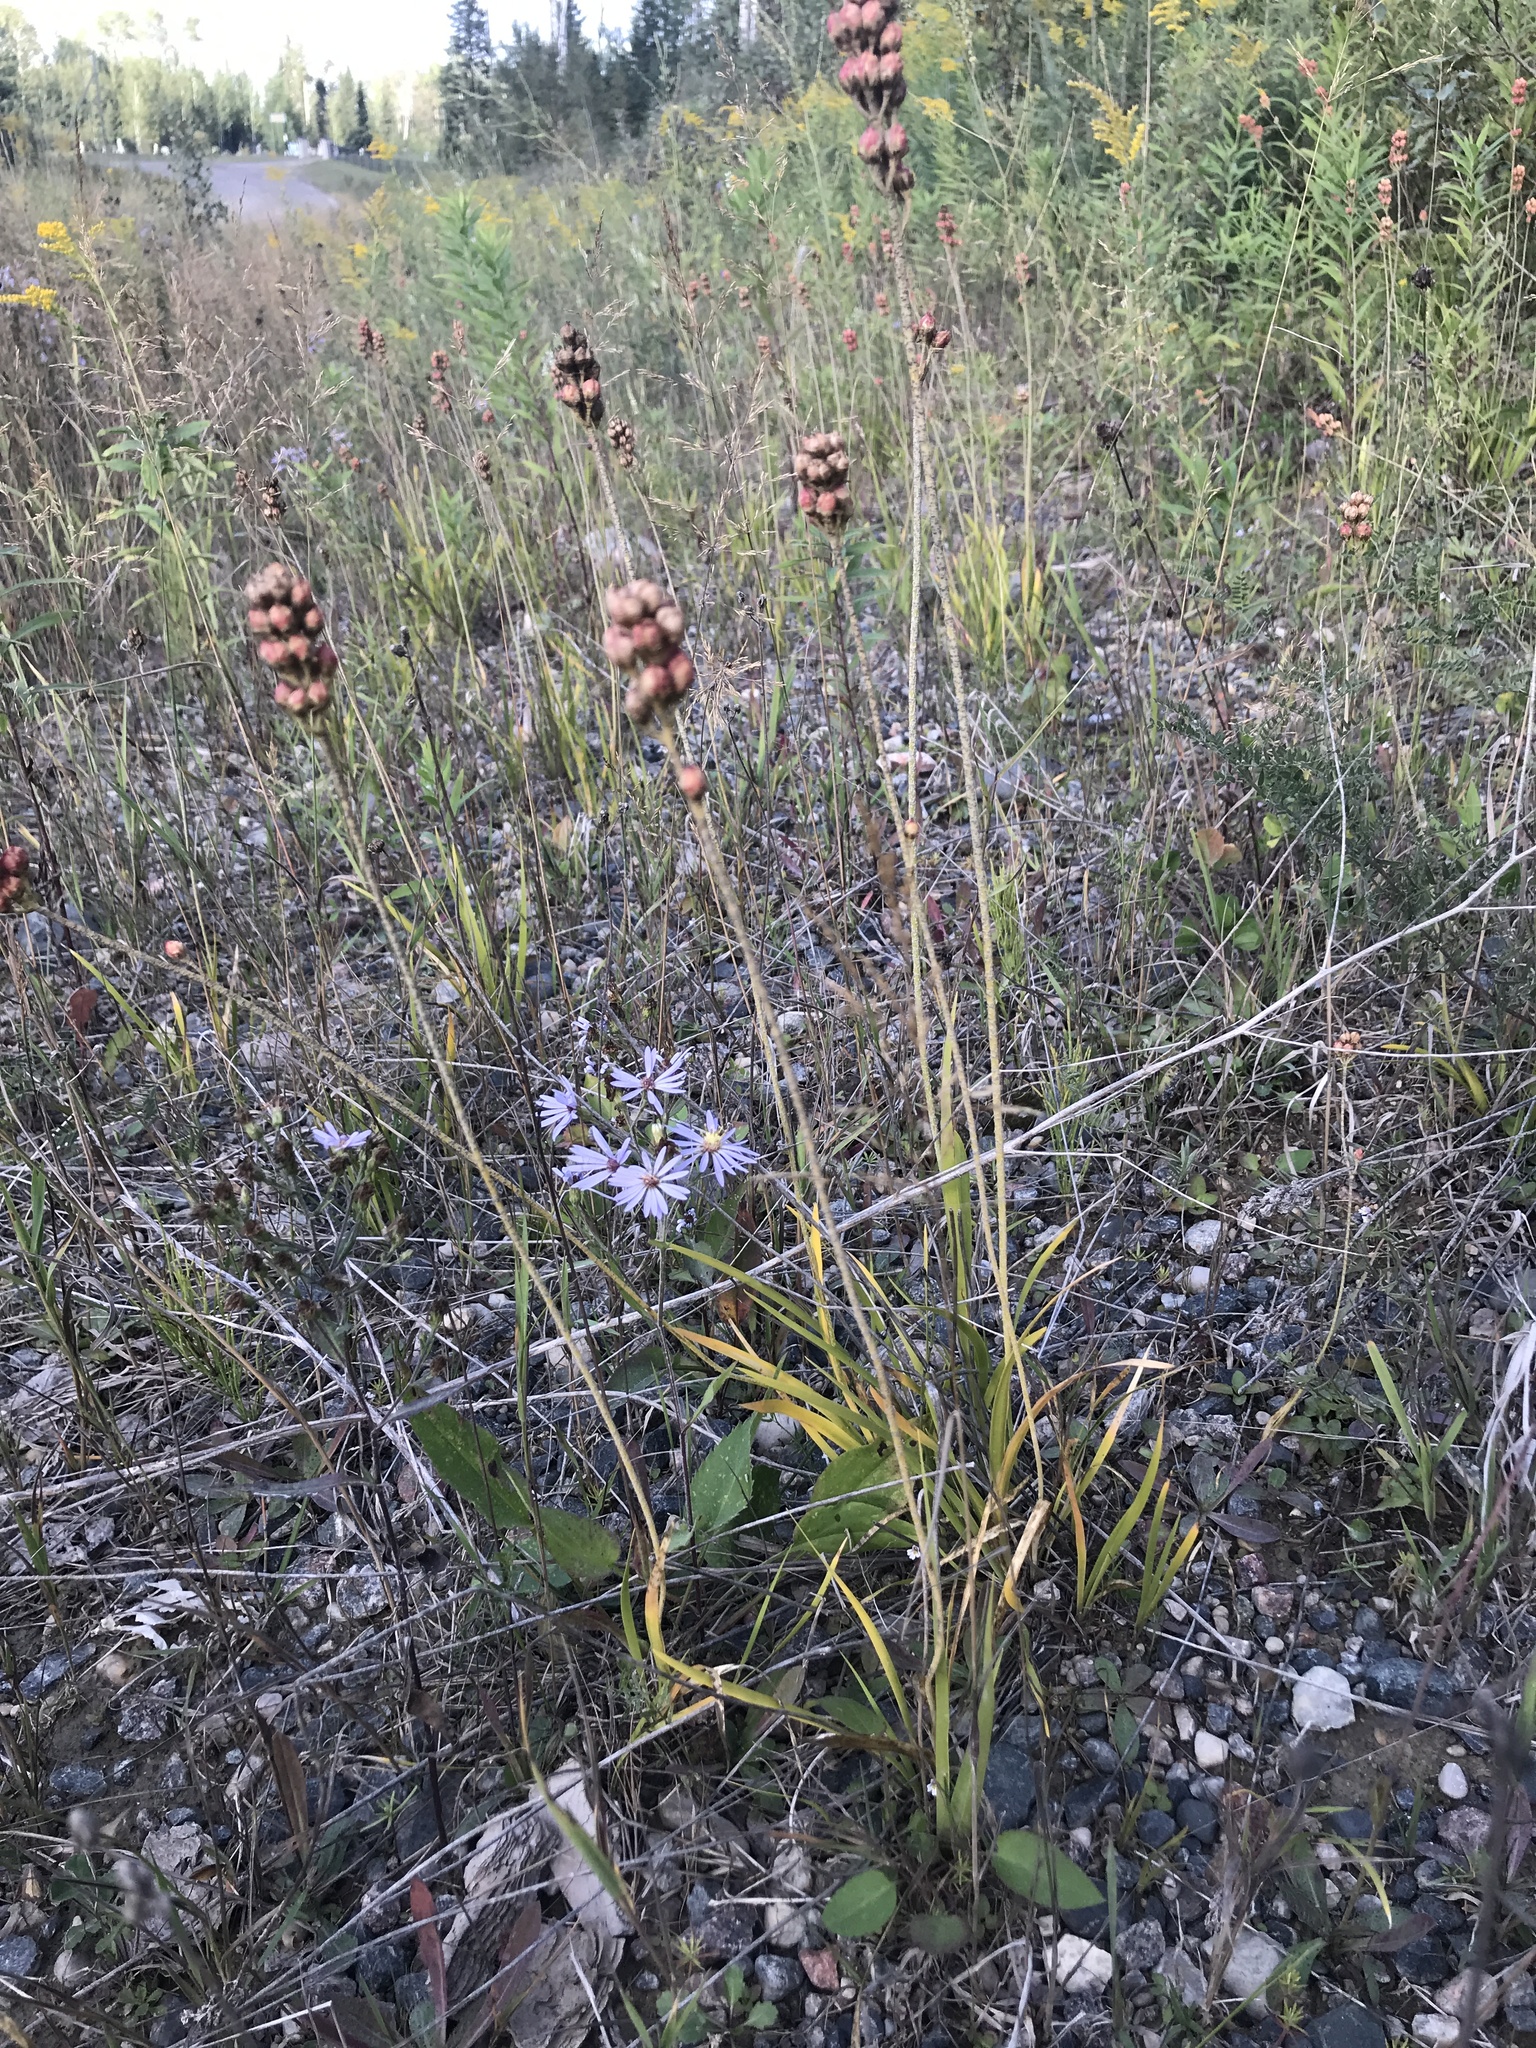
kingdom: Plantae
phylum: Tracheophyta
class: Liliopsida
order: Alismatales
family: Tofieldiaceae
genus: Triantha
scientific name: Triantha glutinosa
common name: Glutinous tofieldia
